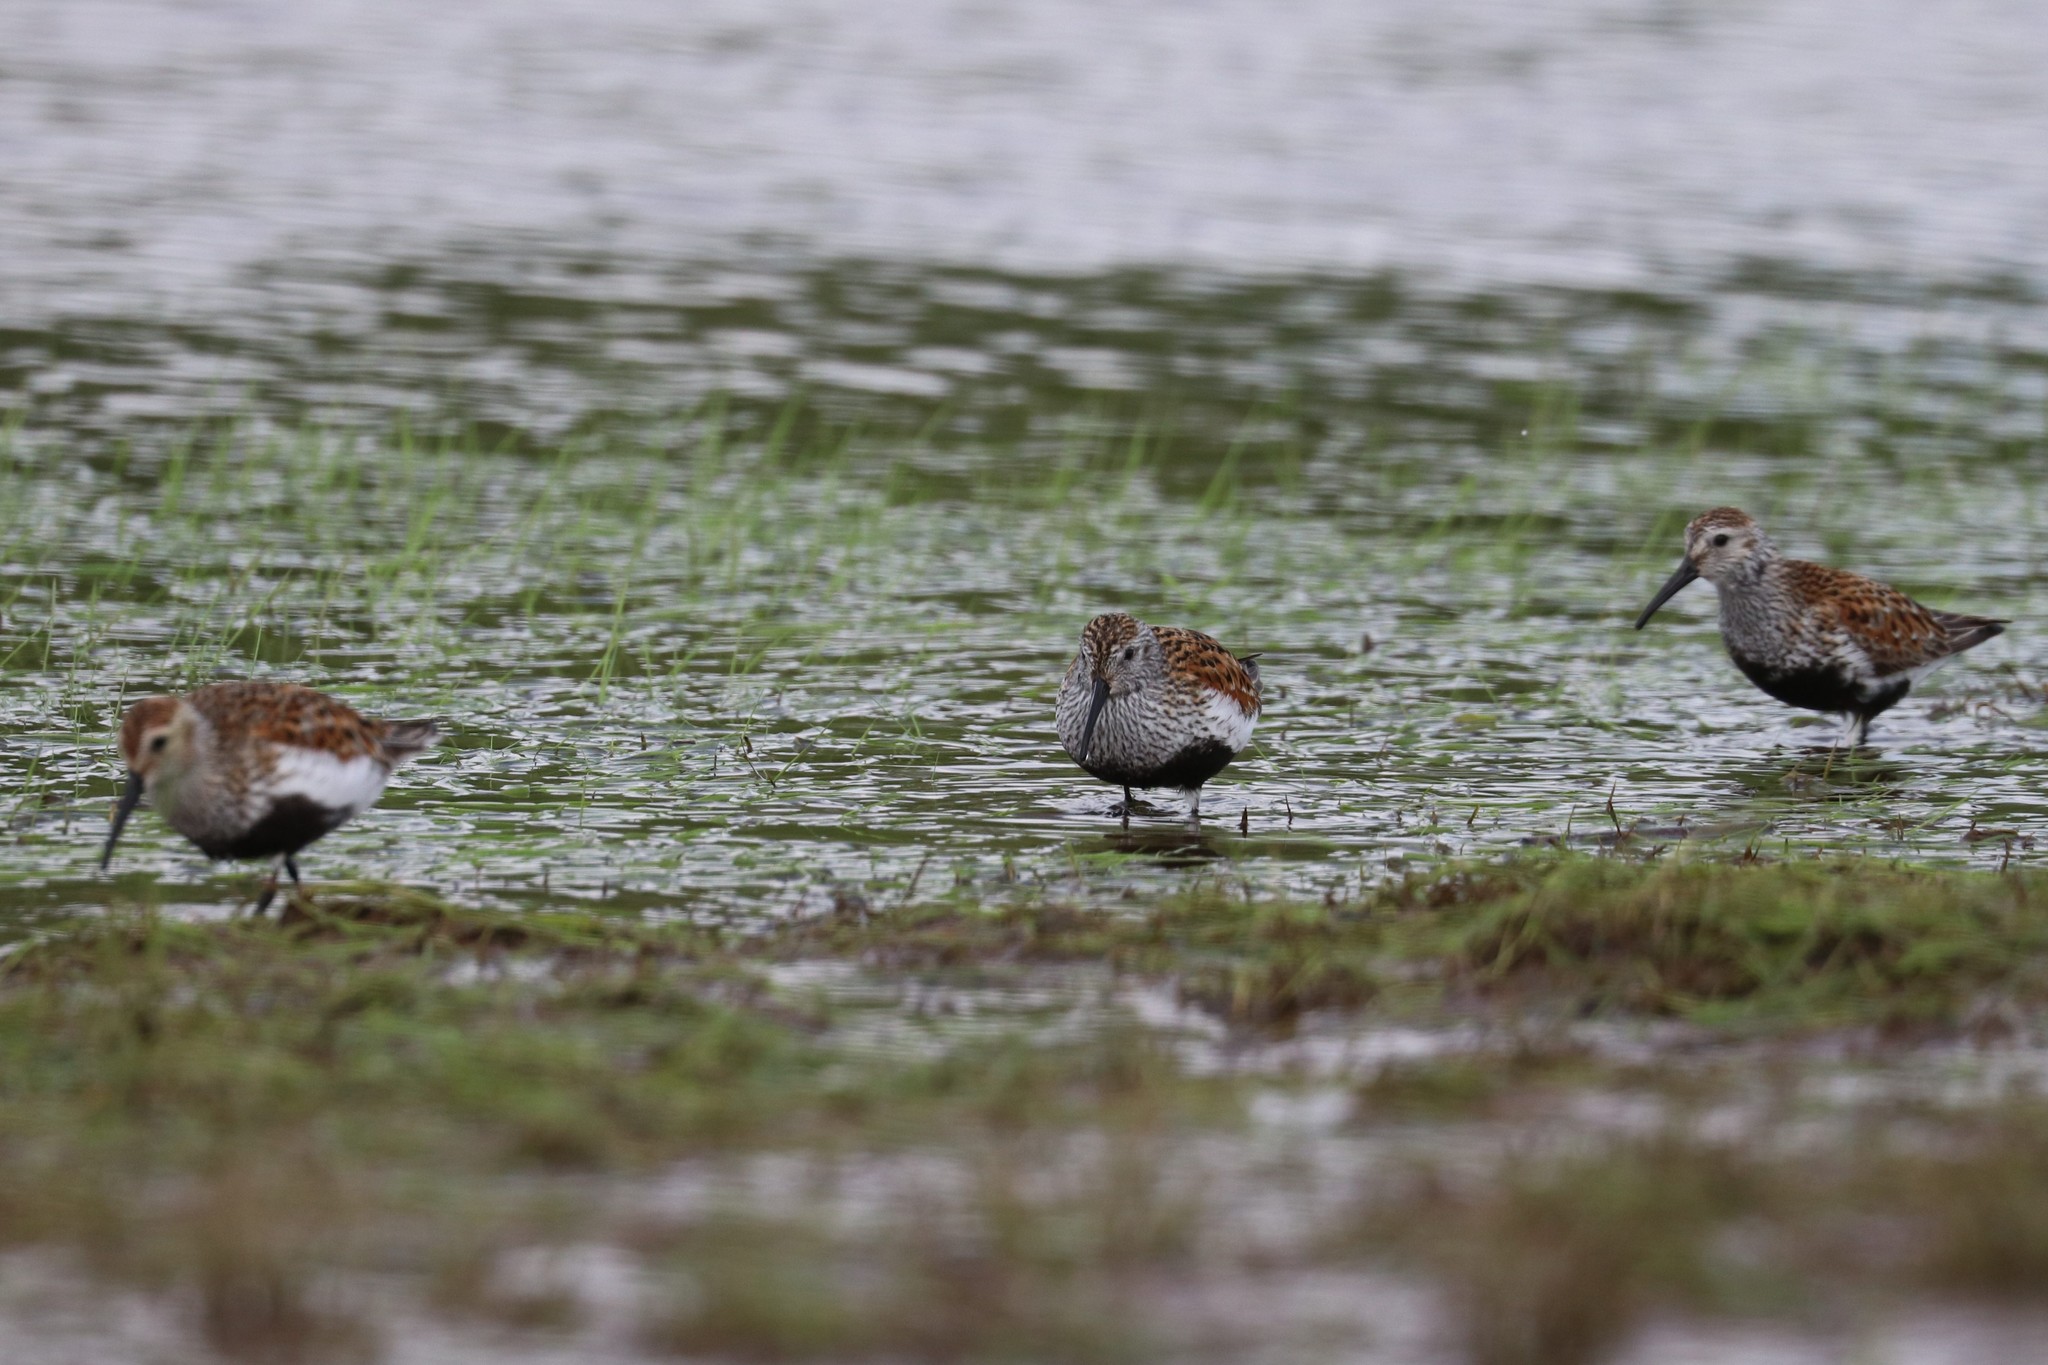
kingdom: Animalia
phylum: Chordata
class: Aves
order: Charadriiformes
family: Scolopacidae
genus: Calidris
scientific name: Calidris alpina
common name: Dunlin
